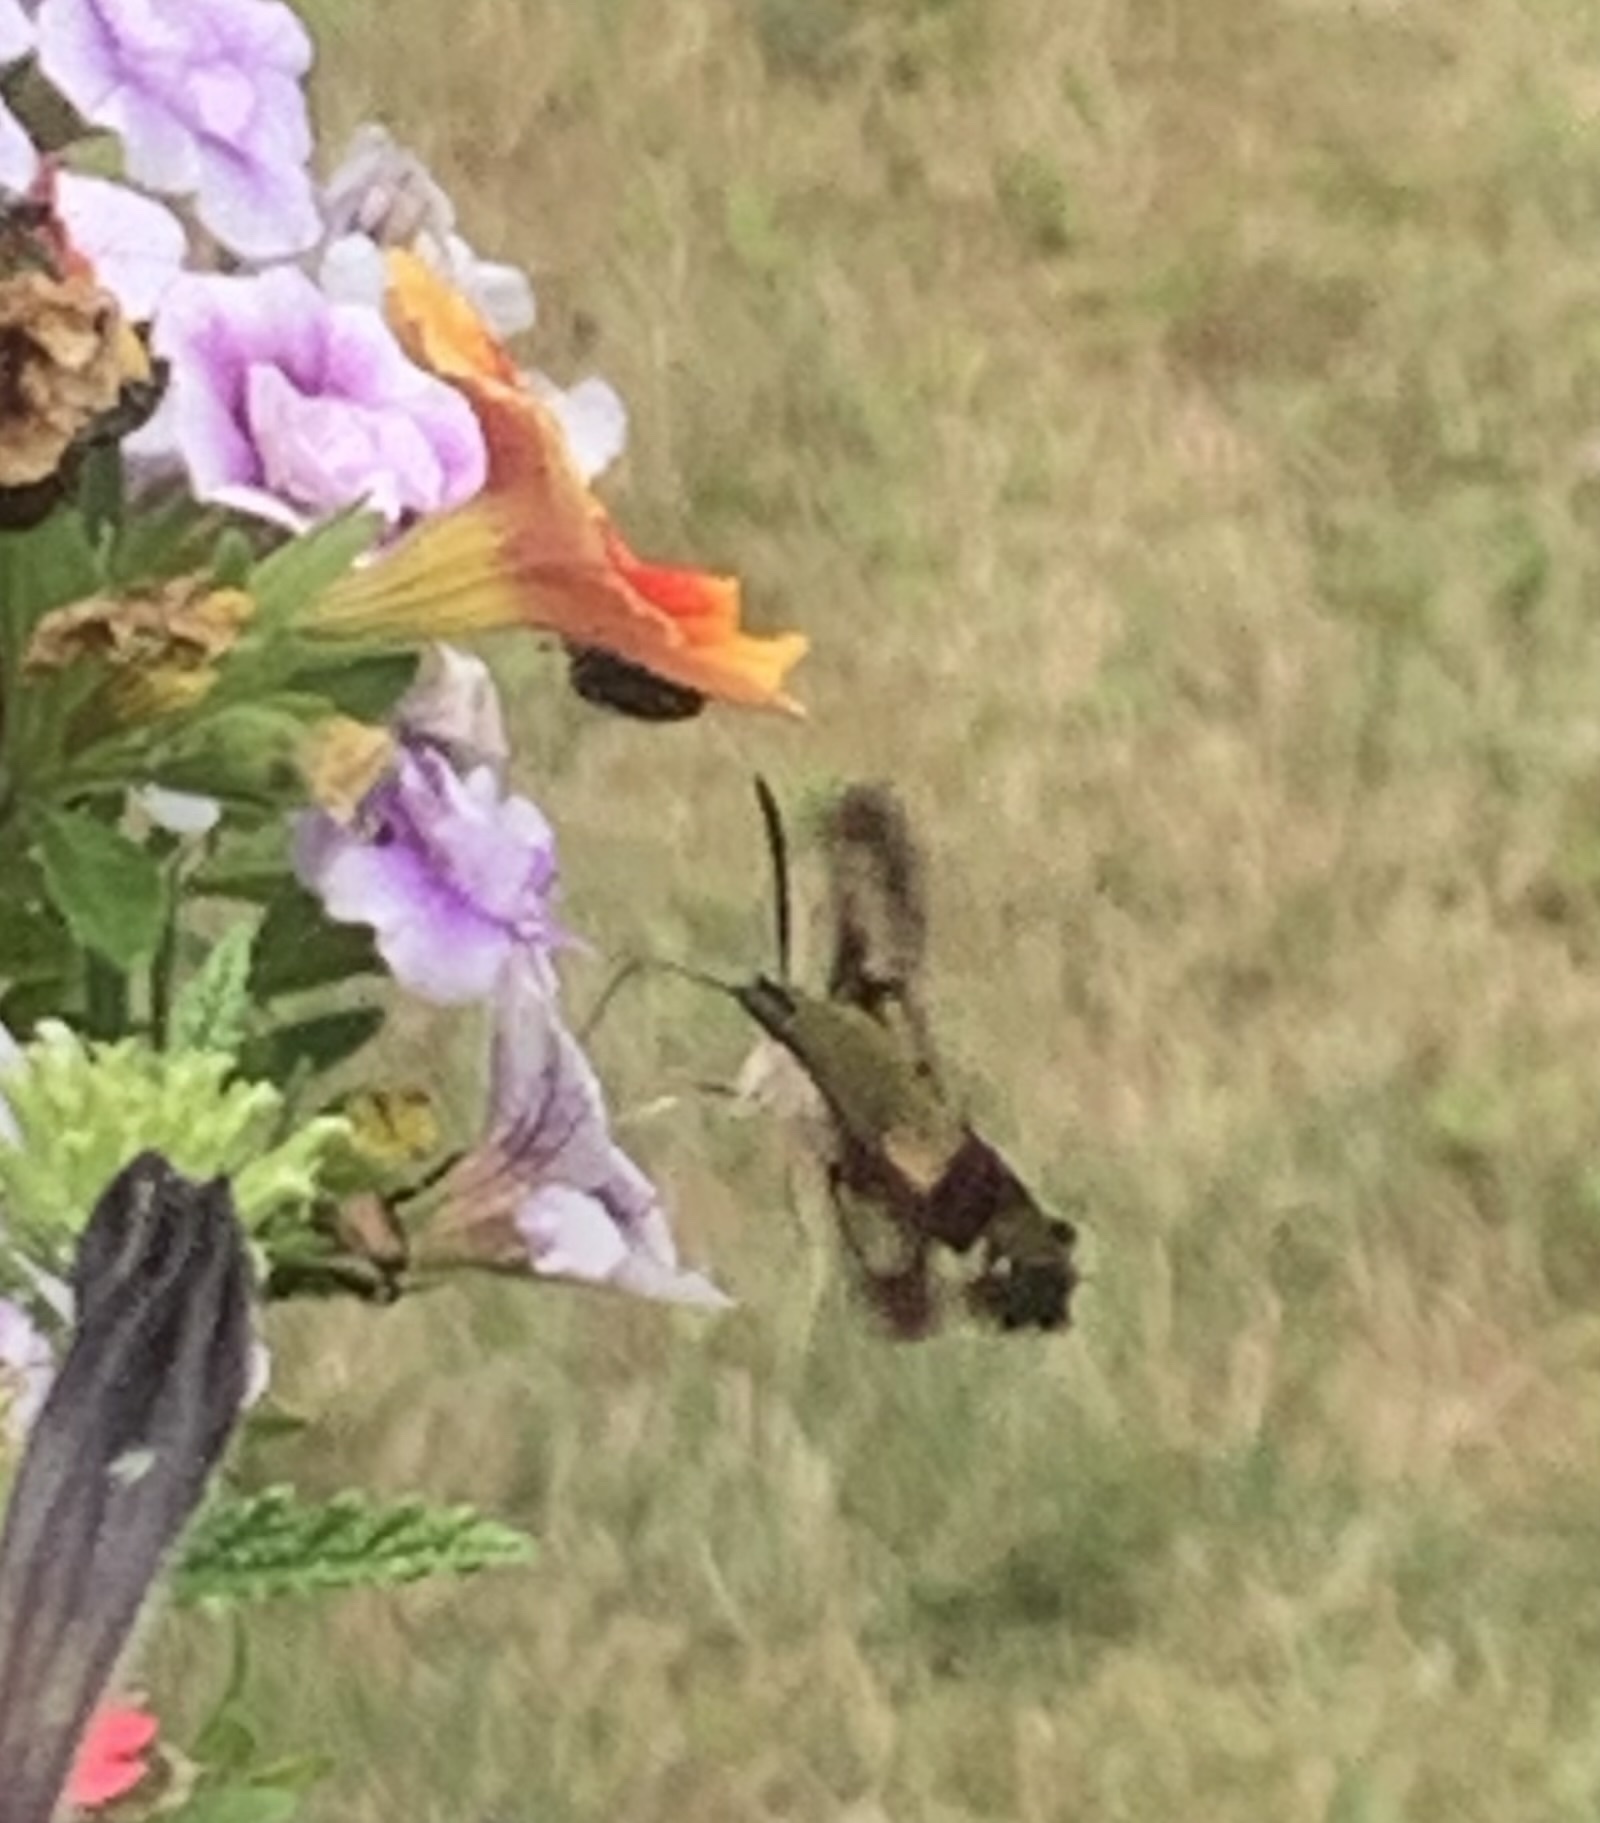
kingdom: Animalia
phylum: Arthropoda
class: Insecta
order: Lepidoptera
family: Sphingidae
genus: Hemaris
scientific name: Hemaris thysbe
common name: Common clear-wing
